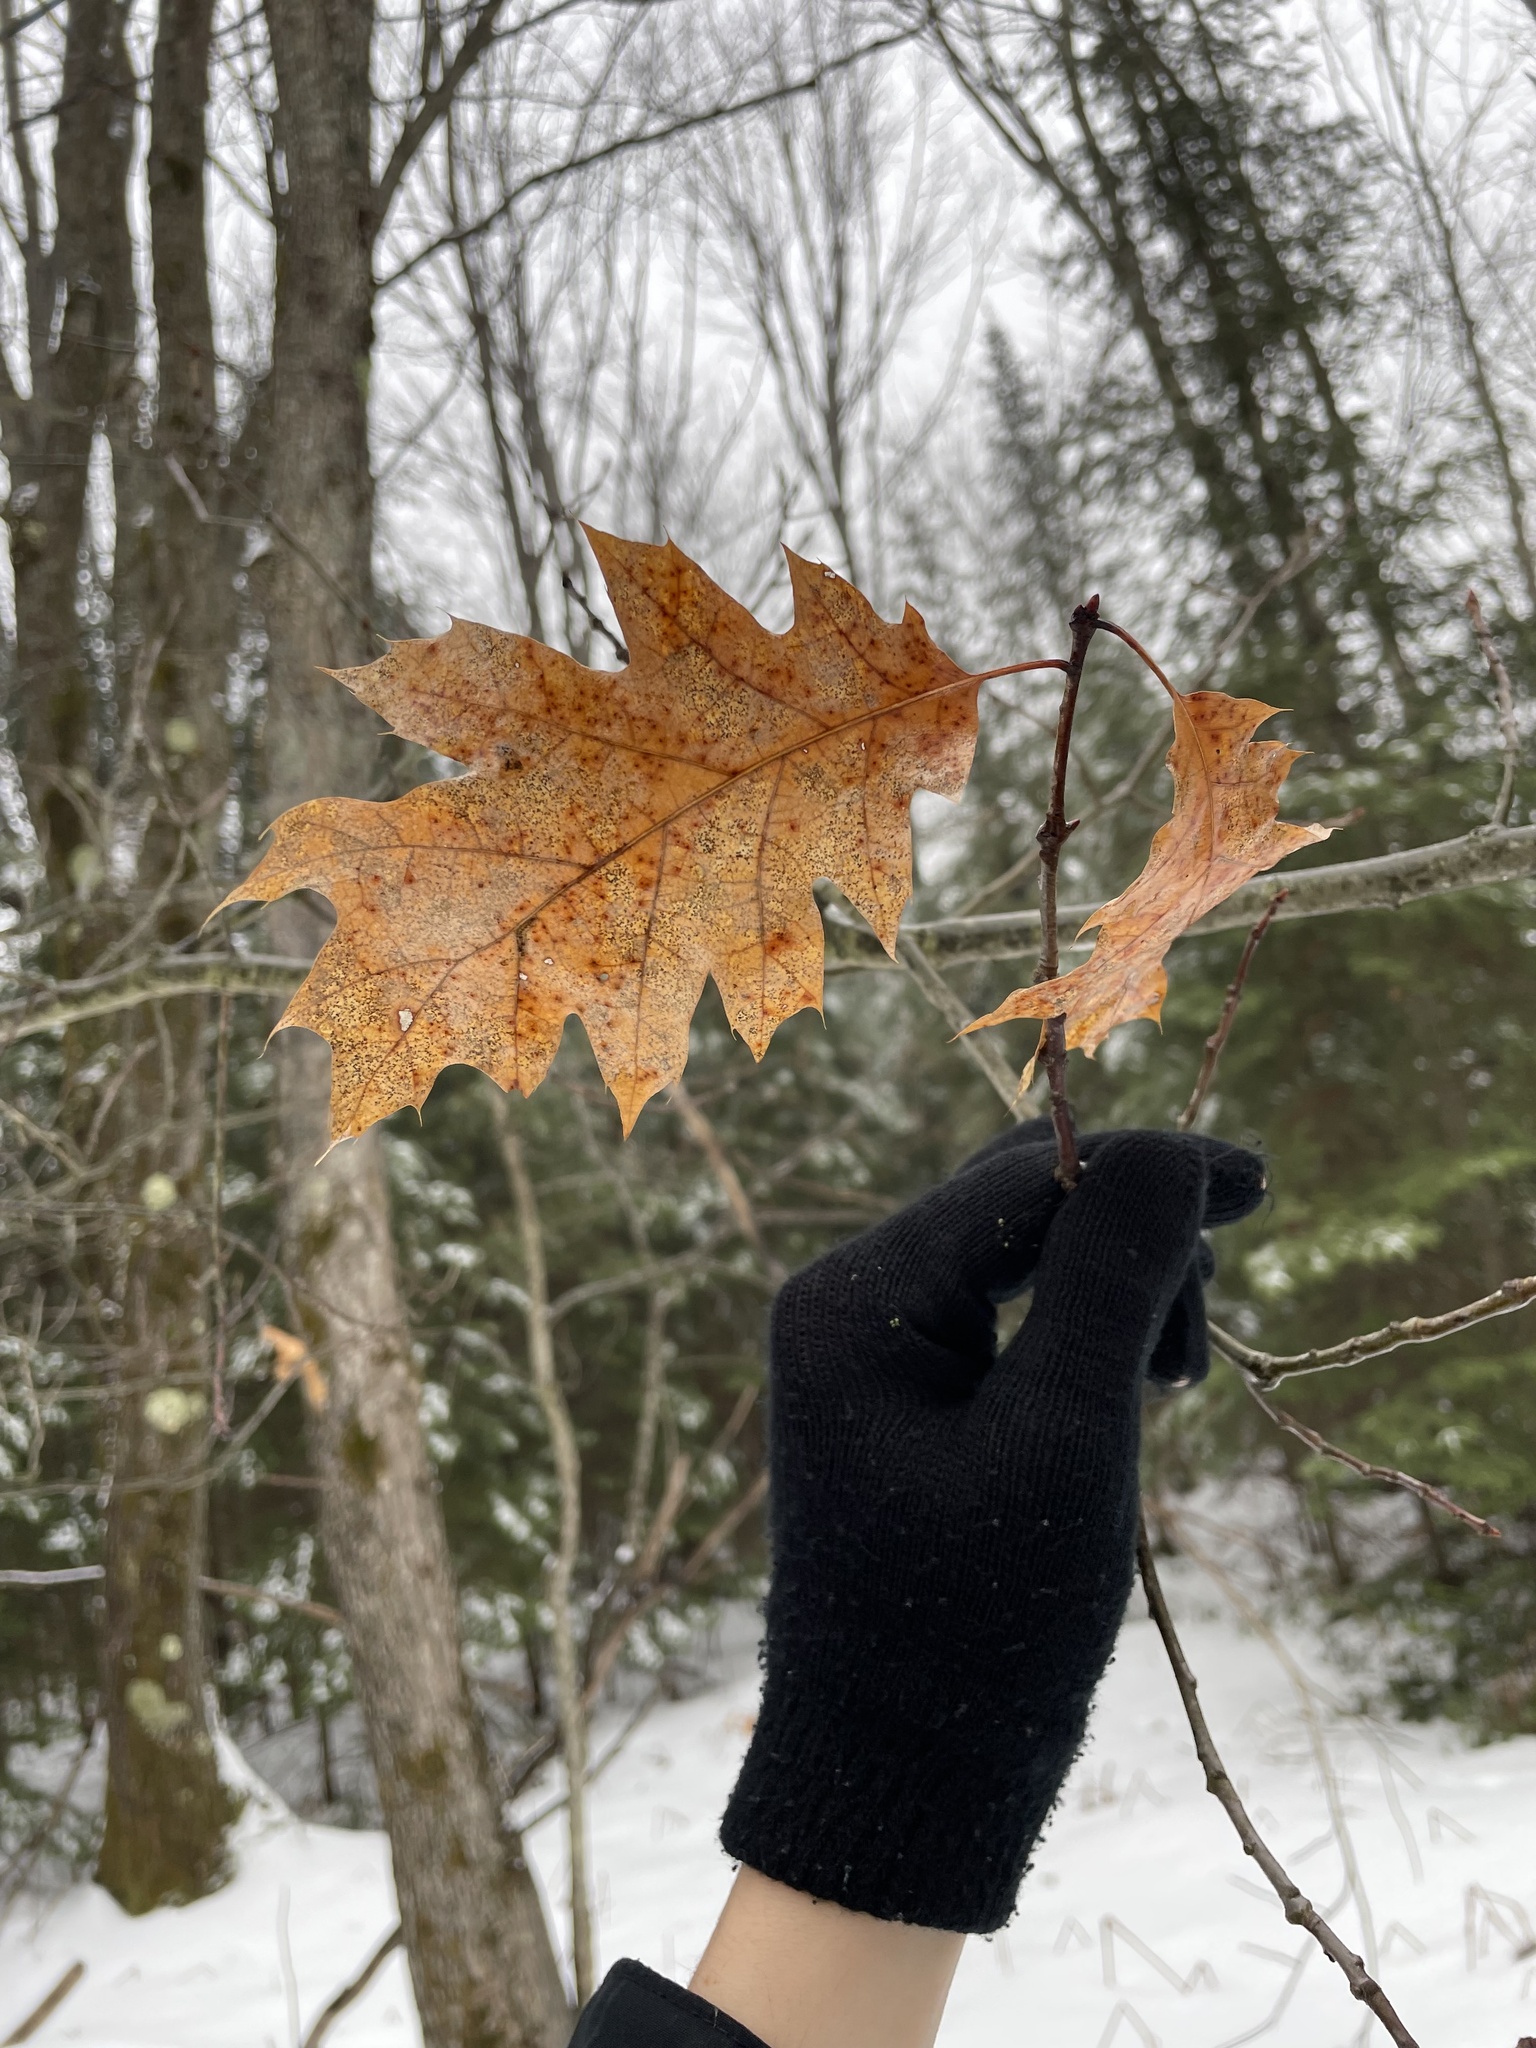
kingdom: Plantae
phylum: Tracheophyta
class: Magnoliopsida
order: Fagales
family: Fagaceae
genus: Quercus
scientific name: Quercus rubra
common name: Red oak
